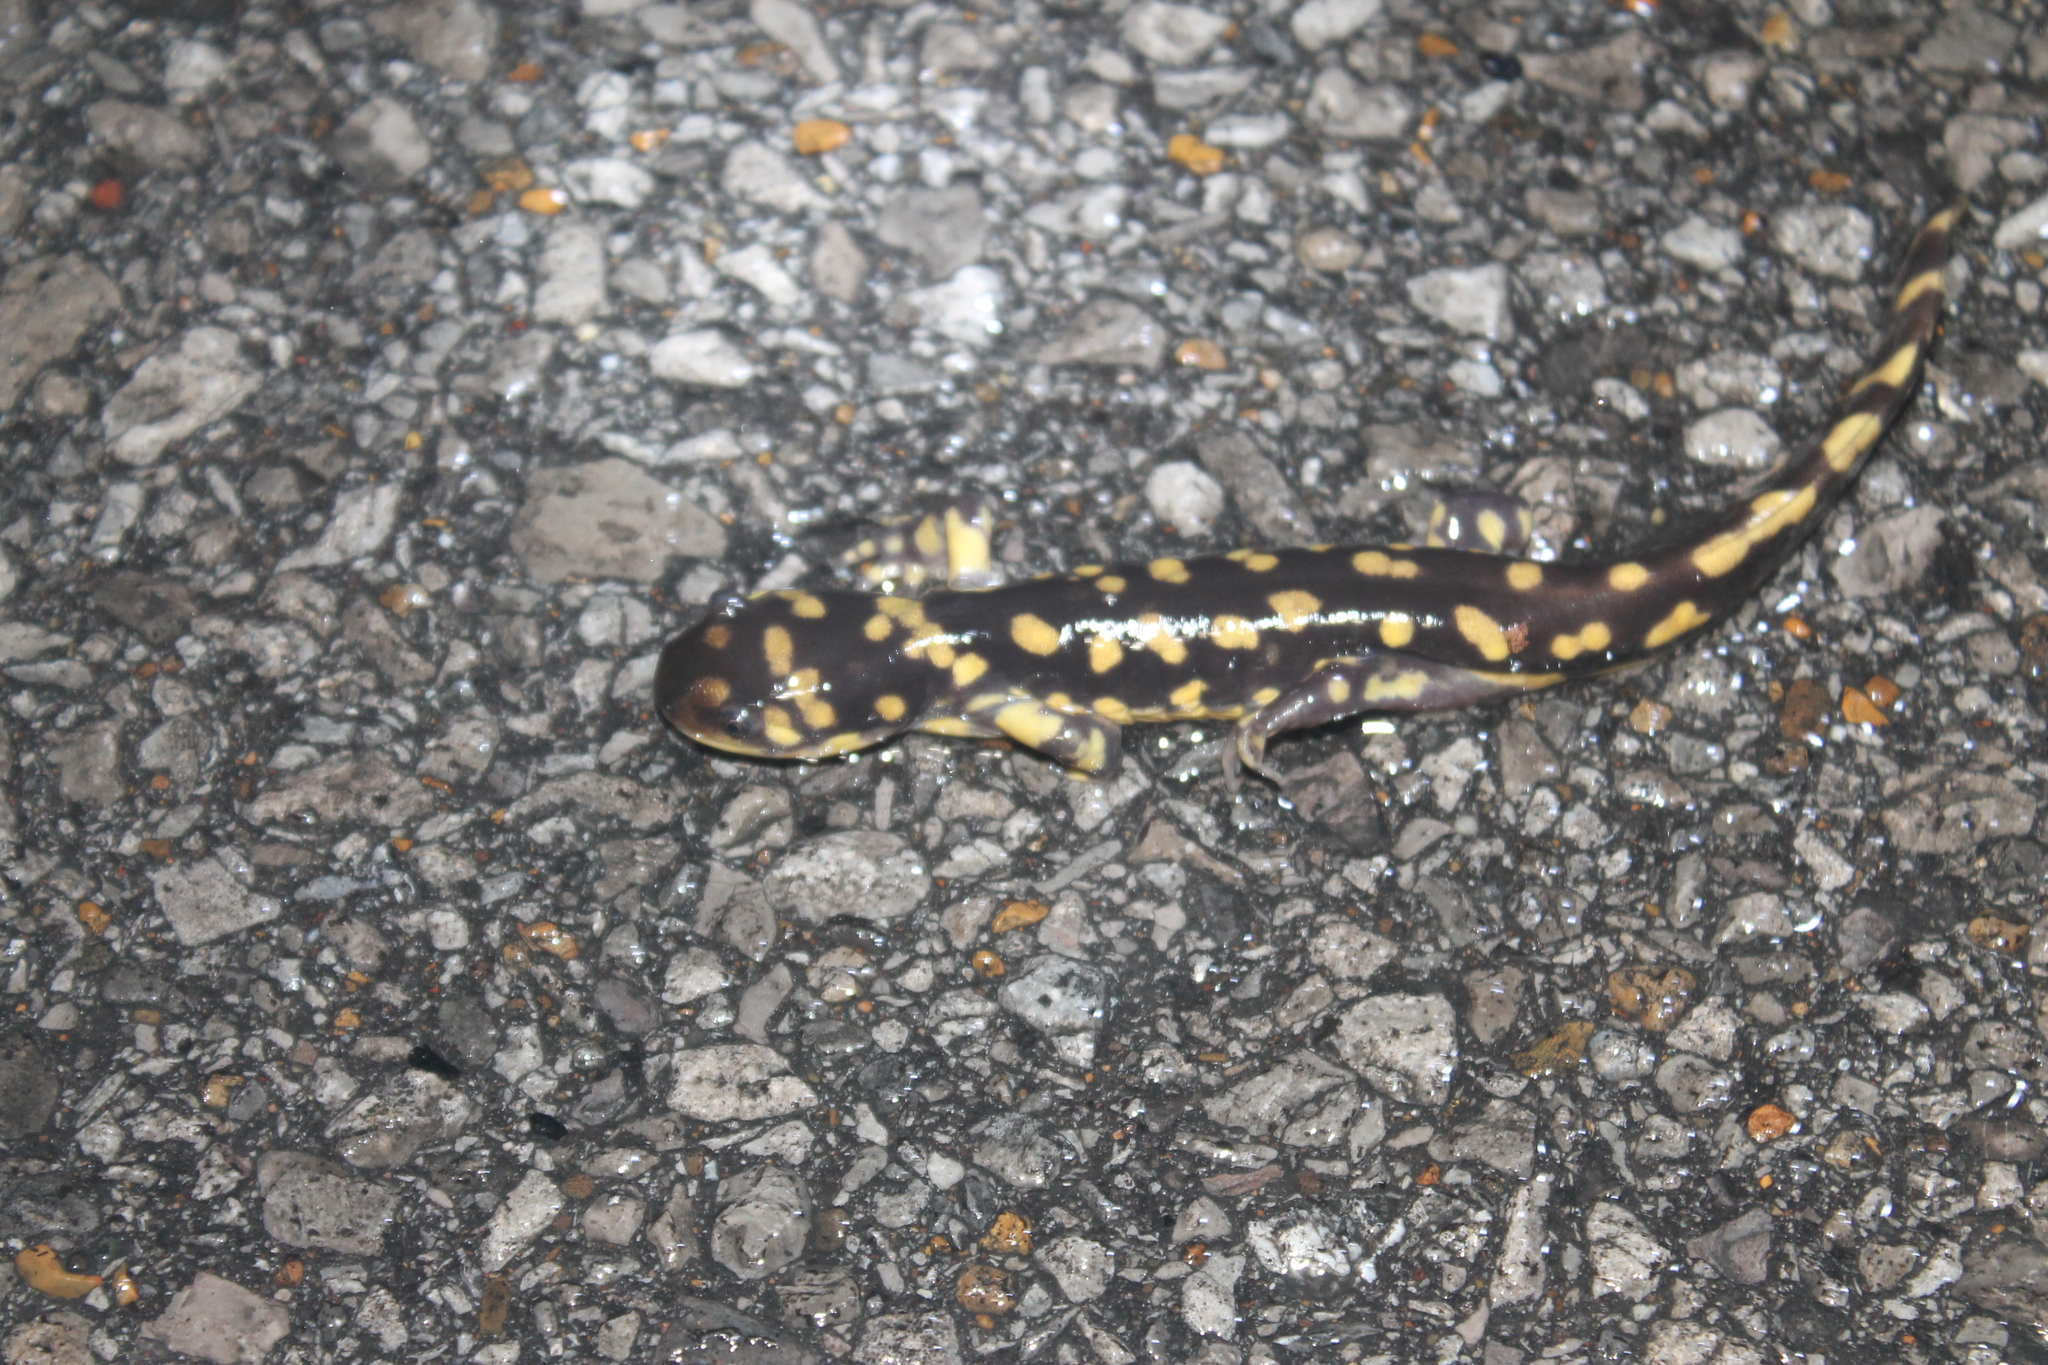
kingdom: Animalia
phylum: Chordata
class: Amphibia
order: Caudata
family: Ambystomatidae
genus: Ambystoma
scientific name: Ambystoma tigrinum
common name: Tiger salamander
